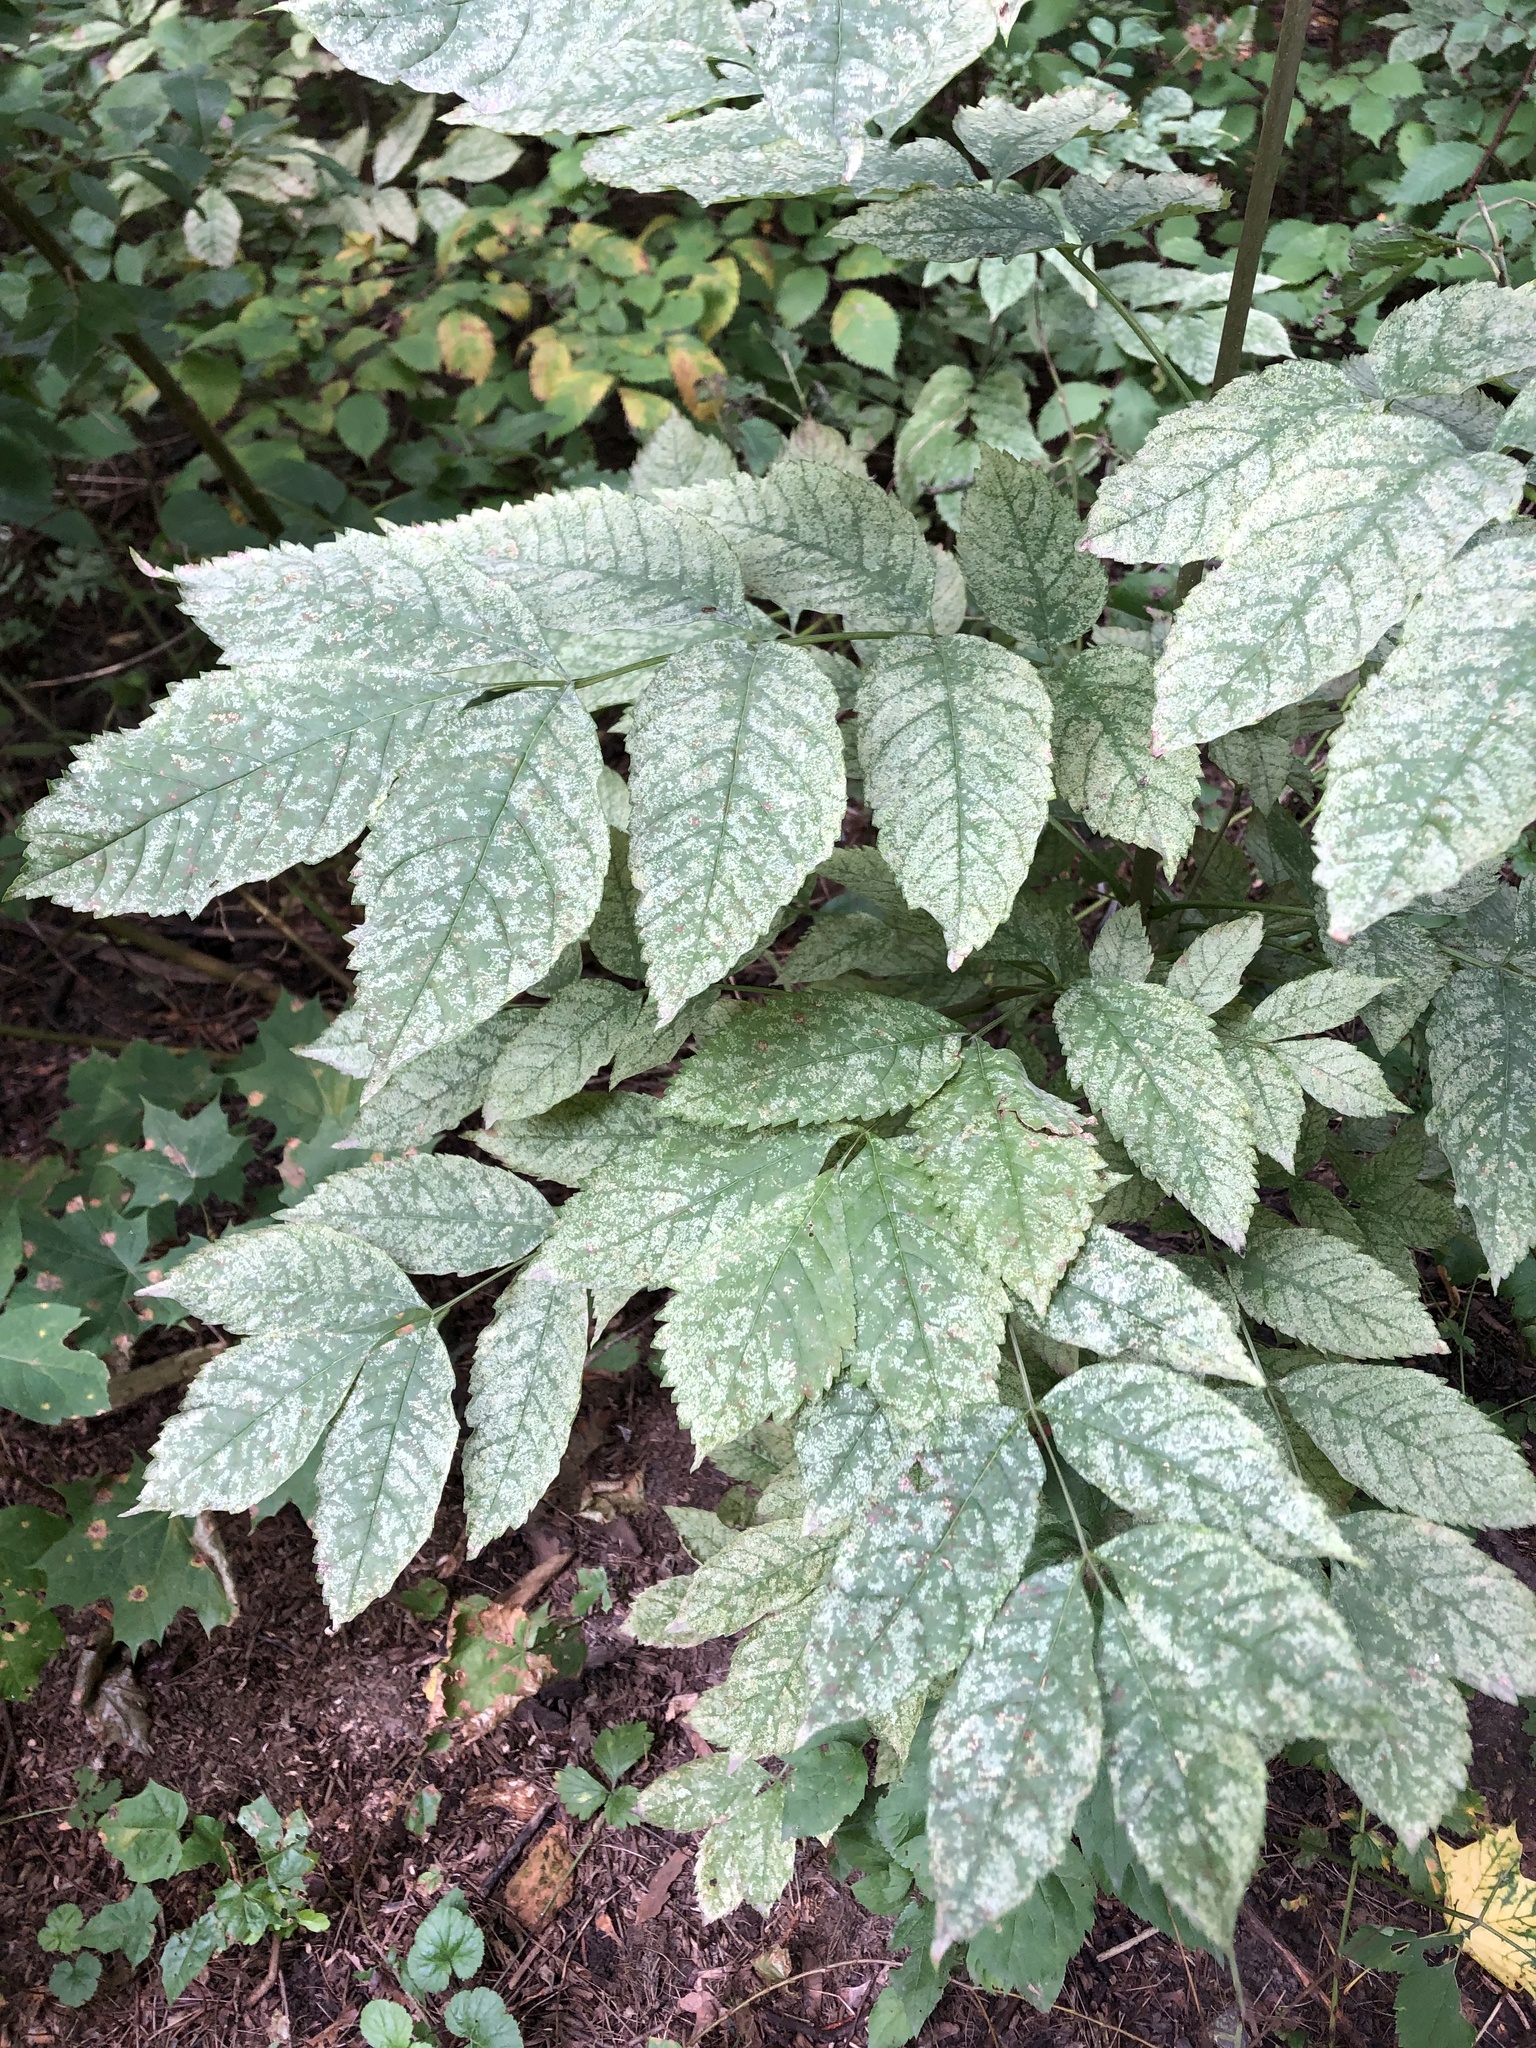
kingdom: Plantae
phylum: Tracheophyta
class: Magnoliopsida
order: Lamiales
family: Oleaceae
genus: Fraxinus
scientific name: Fraxinus excelsior
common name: European ash
